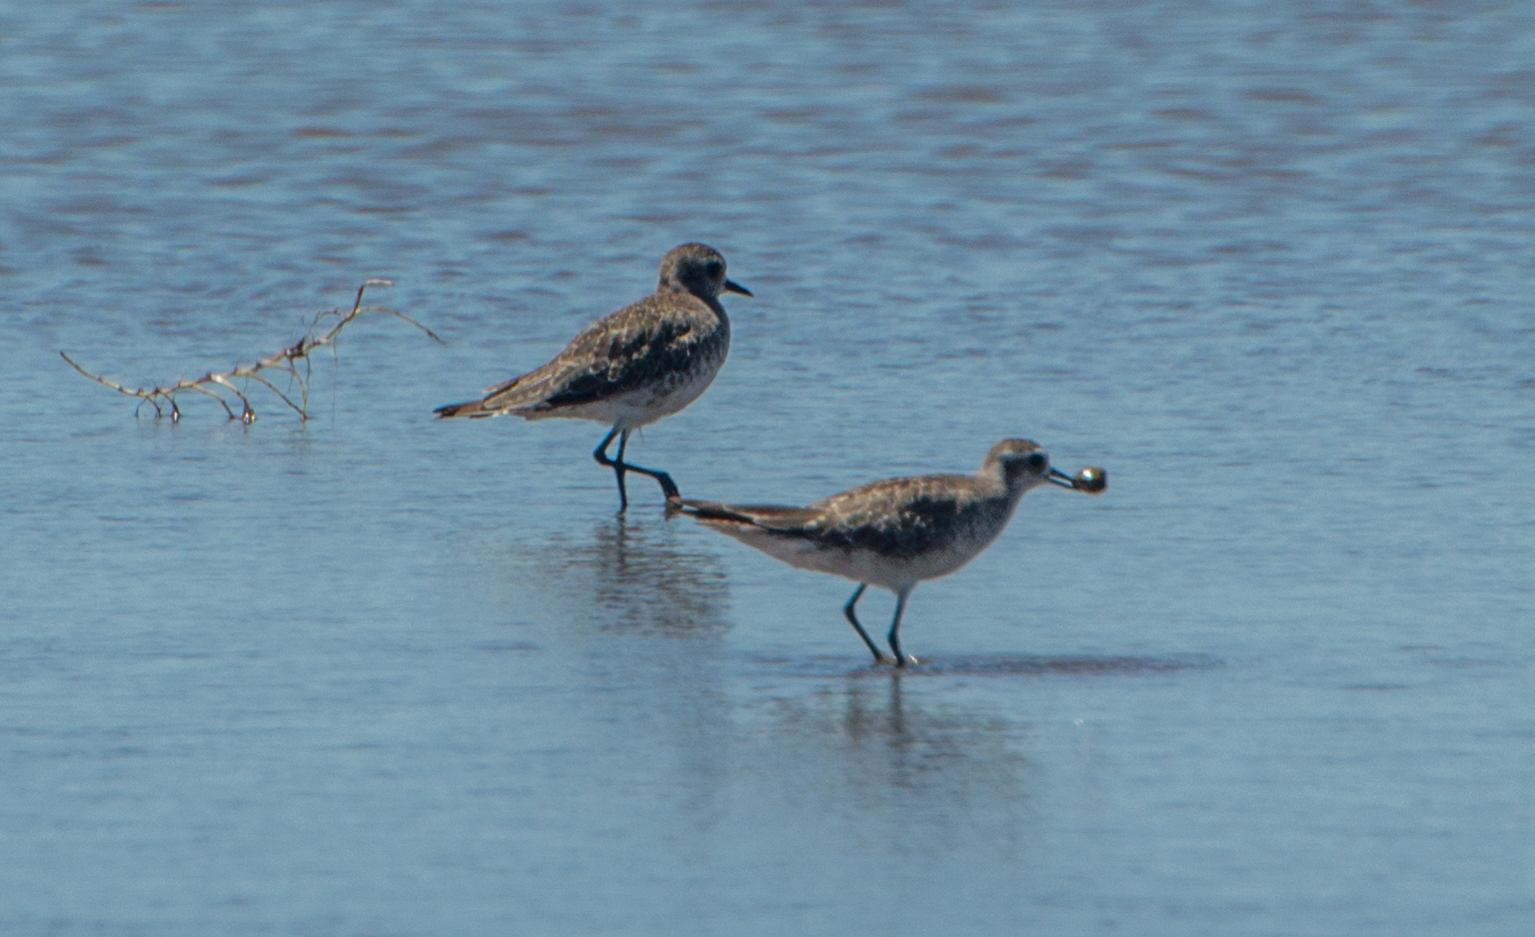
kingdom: Animalia
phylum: Chordata
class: Aves
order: Charadriiformes
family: Charadriidae
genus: Pluvialis
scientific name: Pluvialis dominica
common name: American golden plover
